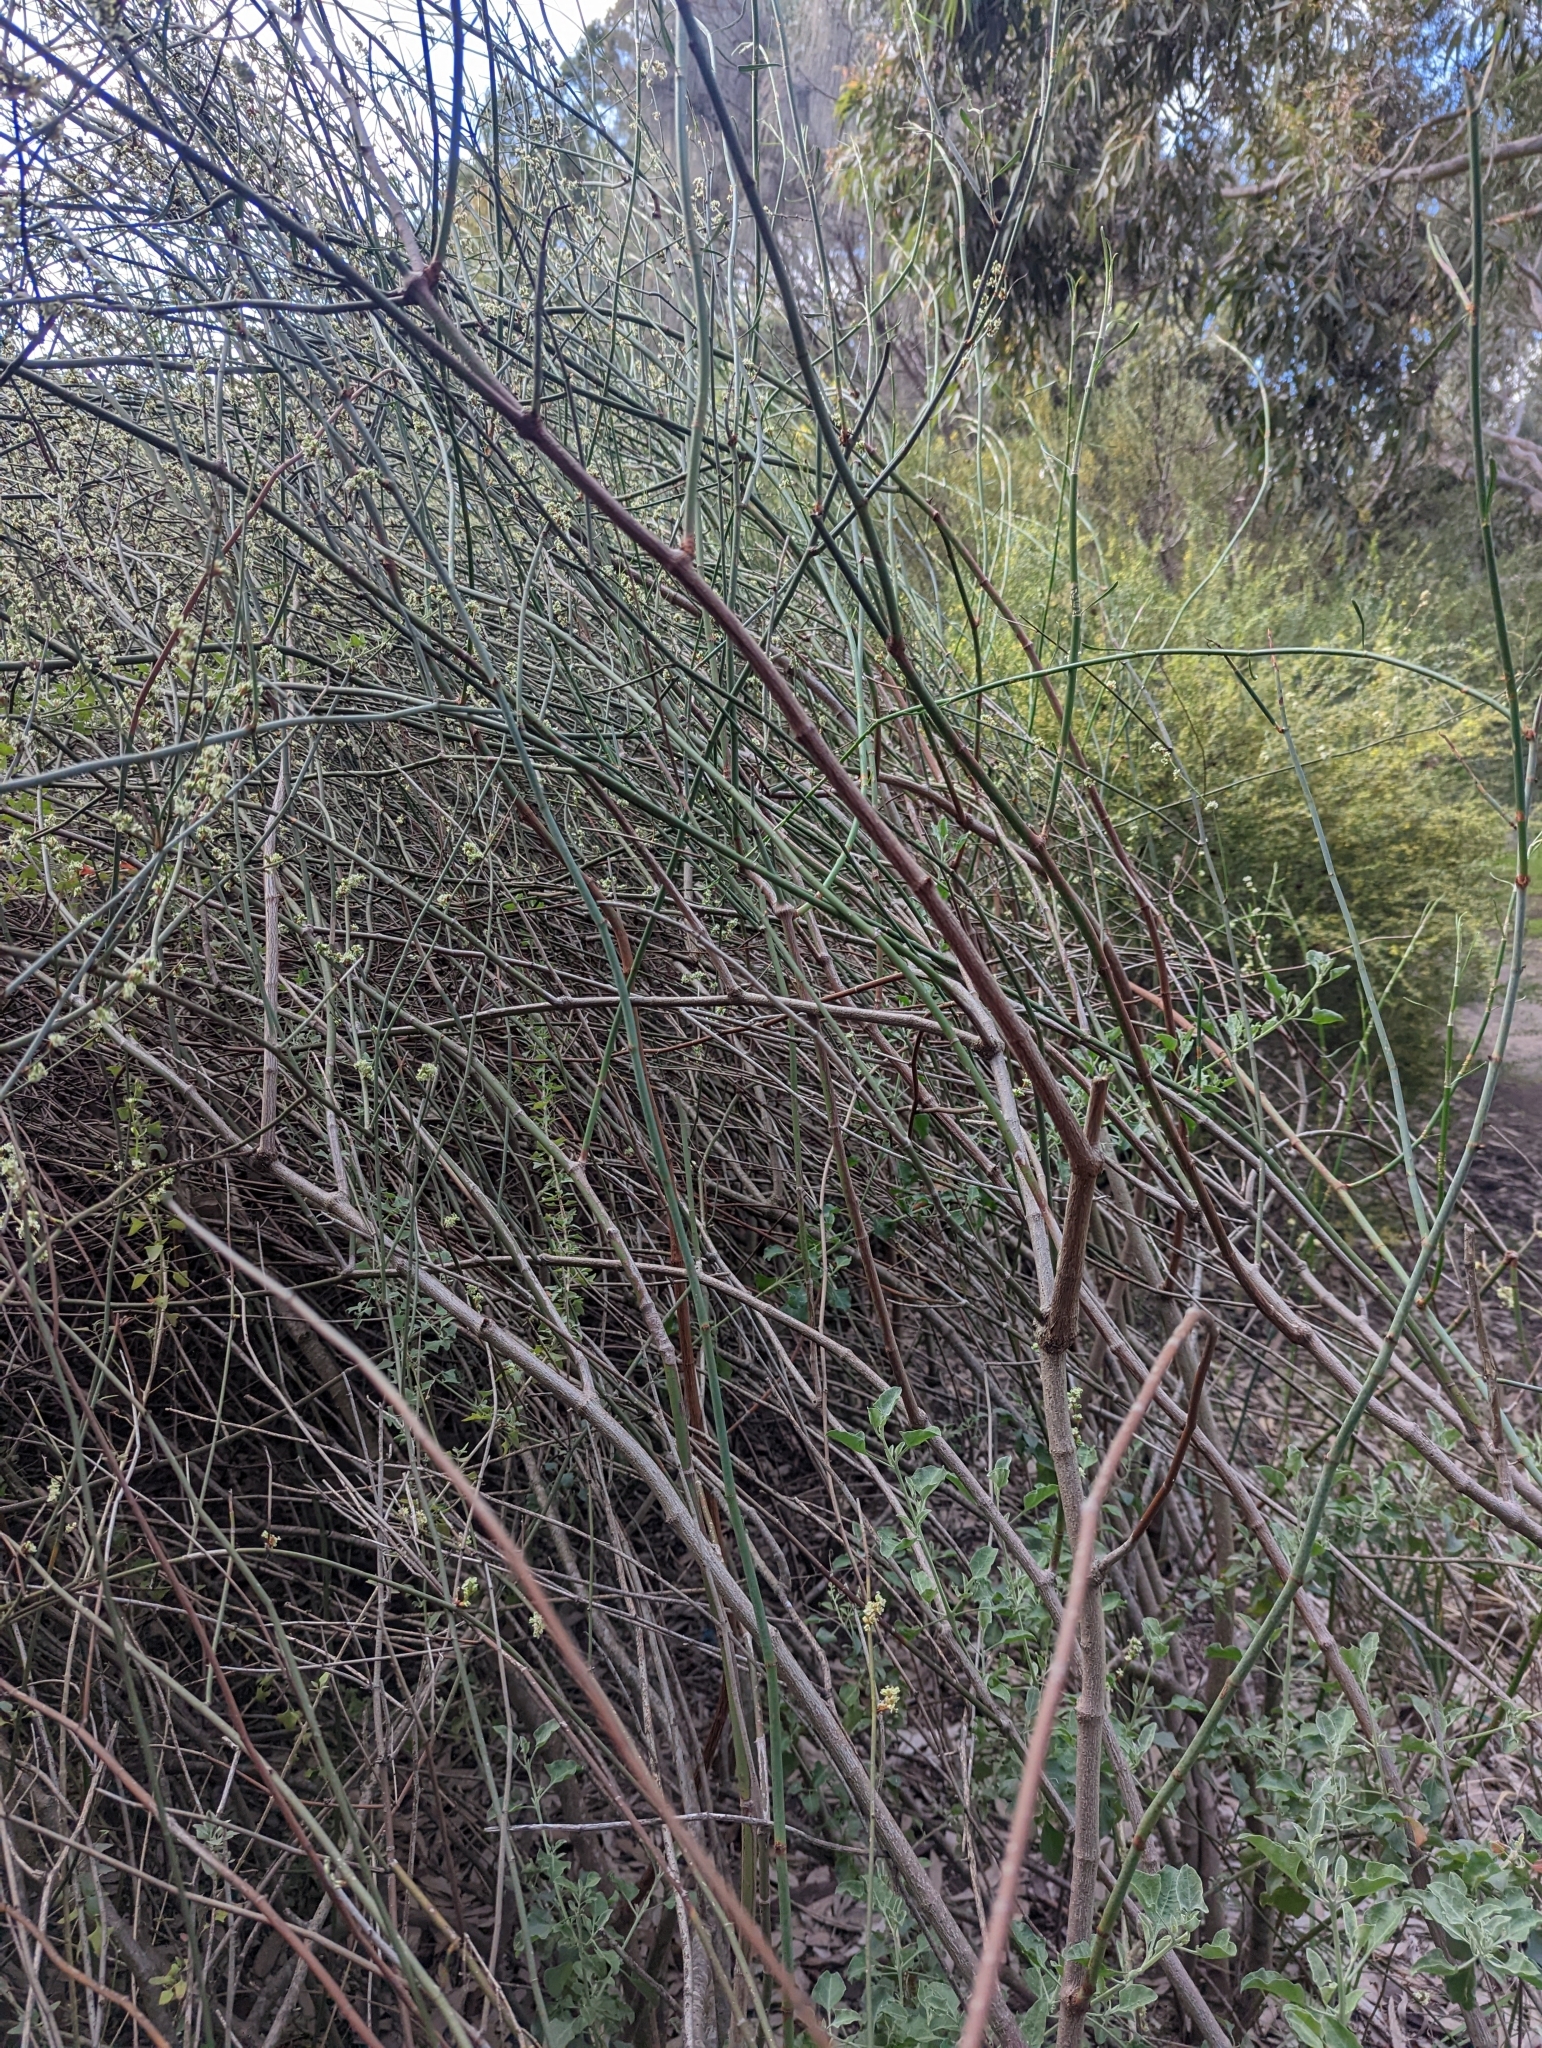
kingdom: Plantae
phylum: Tracheophyta
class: Magnoliopsida
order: Caryophyllales
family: Polygonaceae
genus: Duma
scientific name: Duma florulenta
